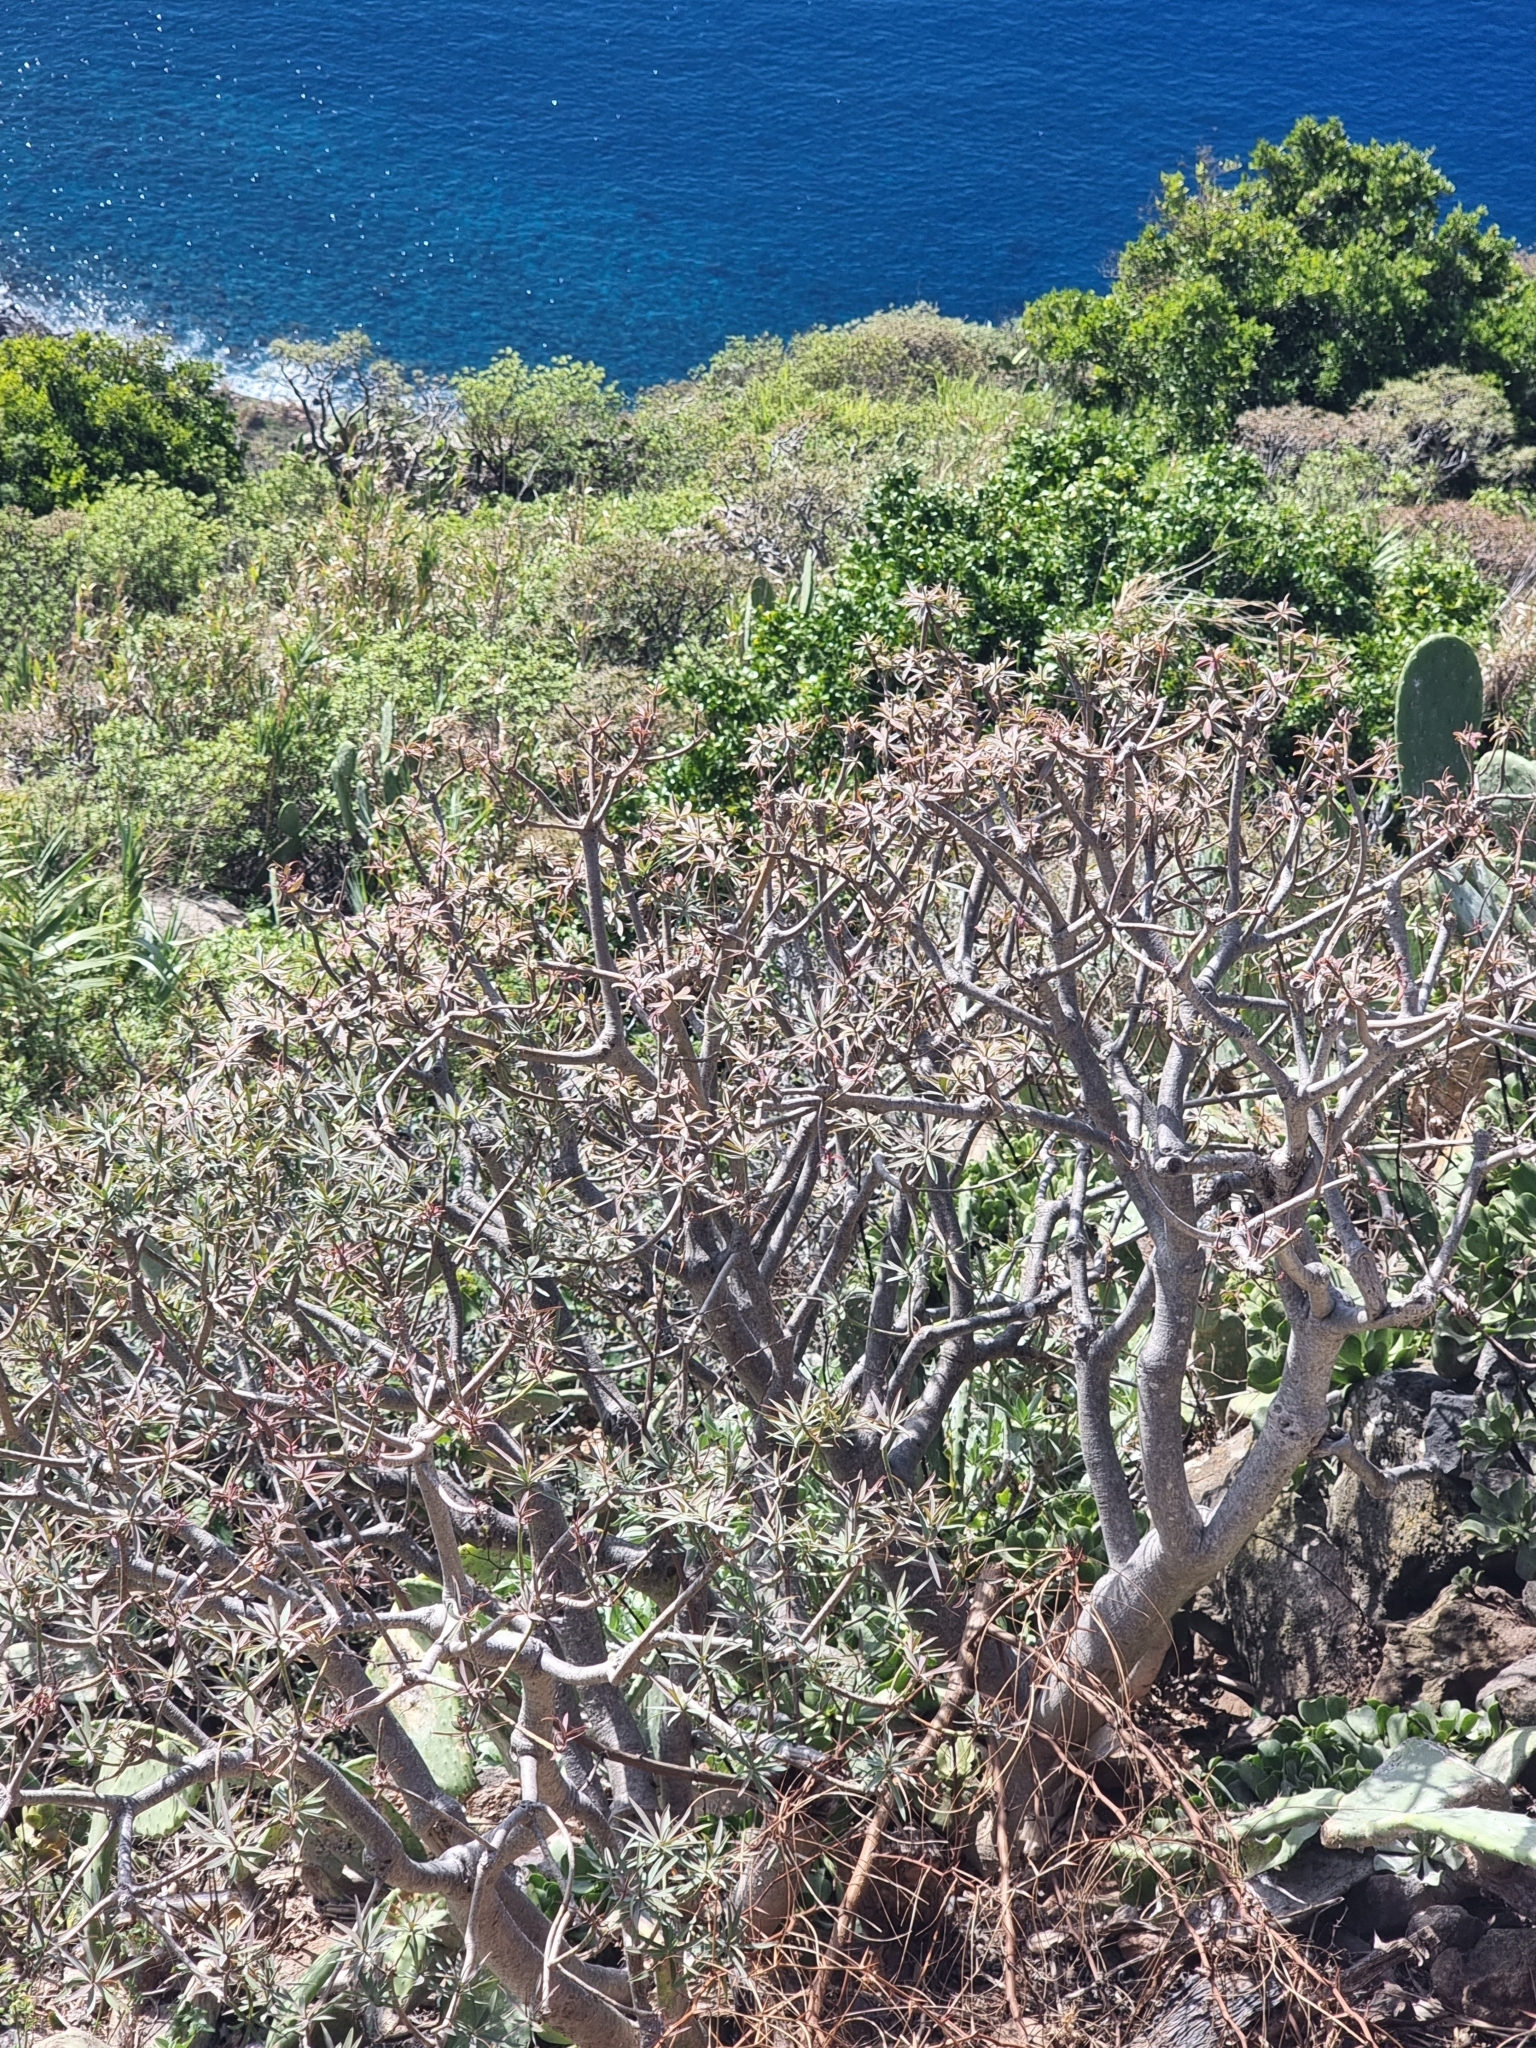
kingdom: Plantae
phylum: Tracheophyta
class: Magnoliopsida
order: Malpighiales
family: Euphorbiaceae
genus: Euphorbia
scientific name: Euphorbia piscatoria
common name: Fish-stunning spurge
